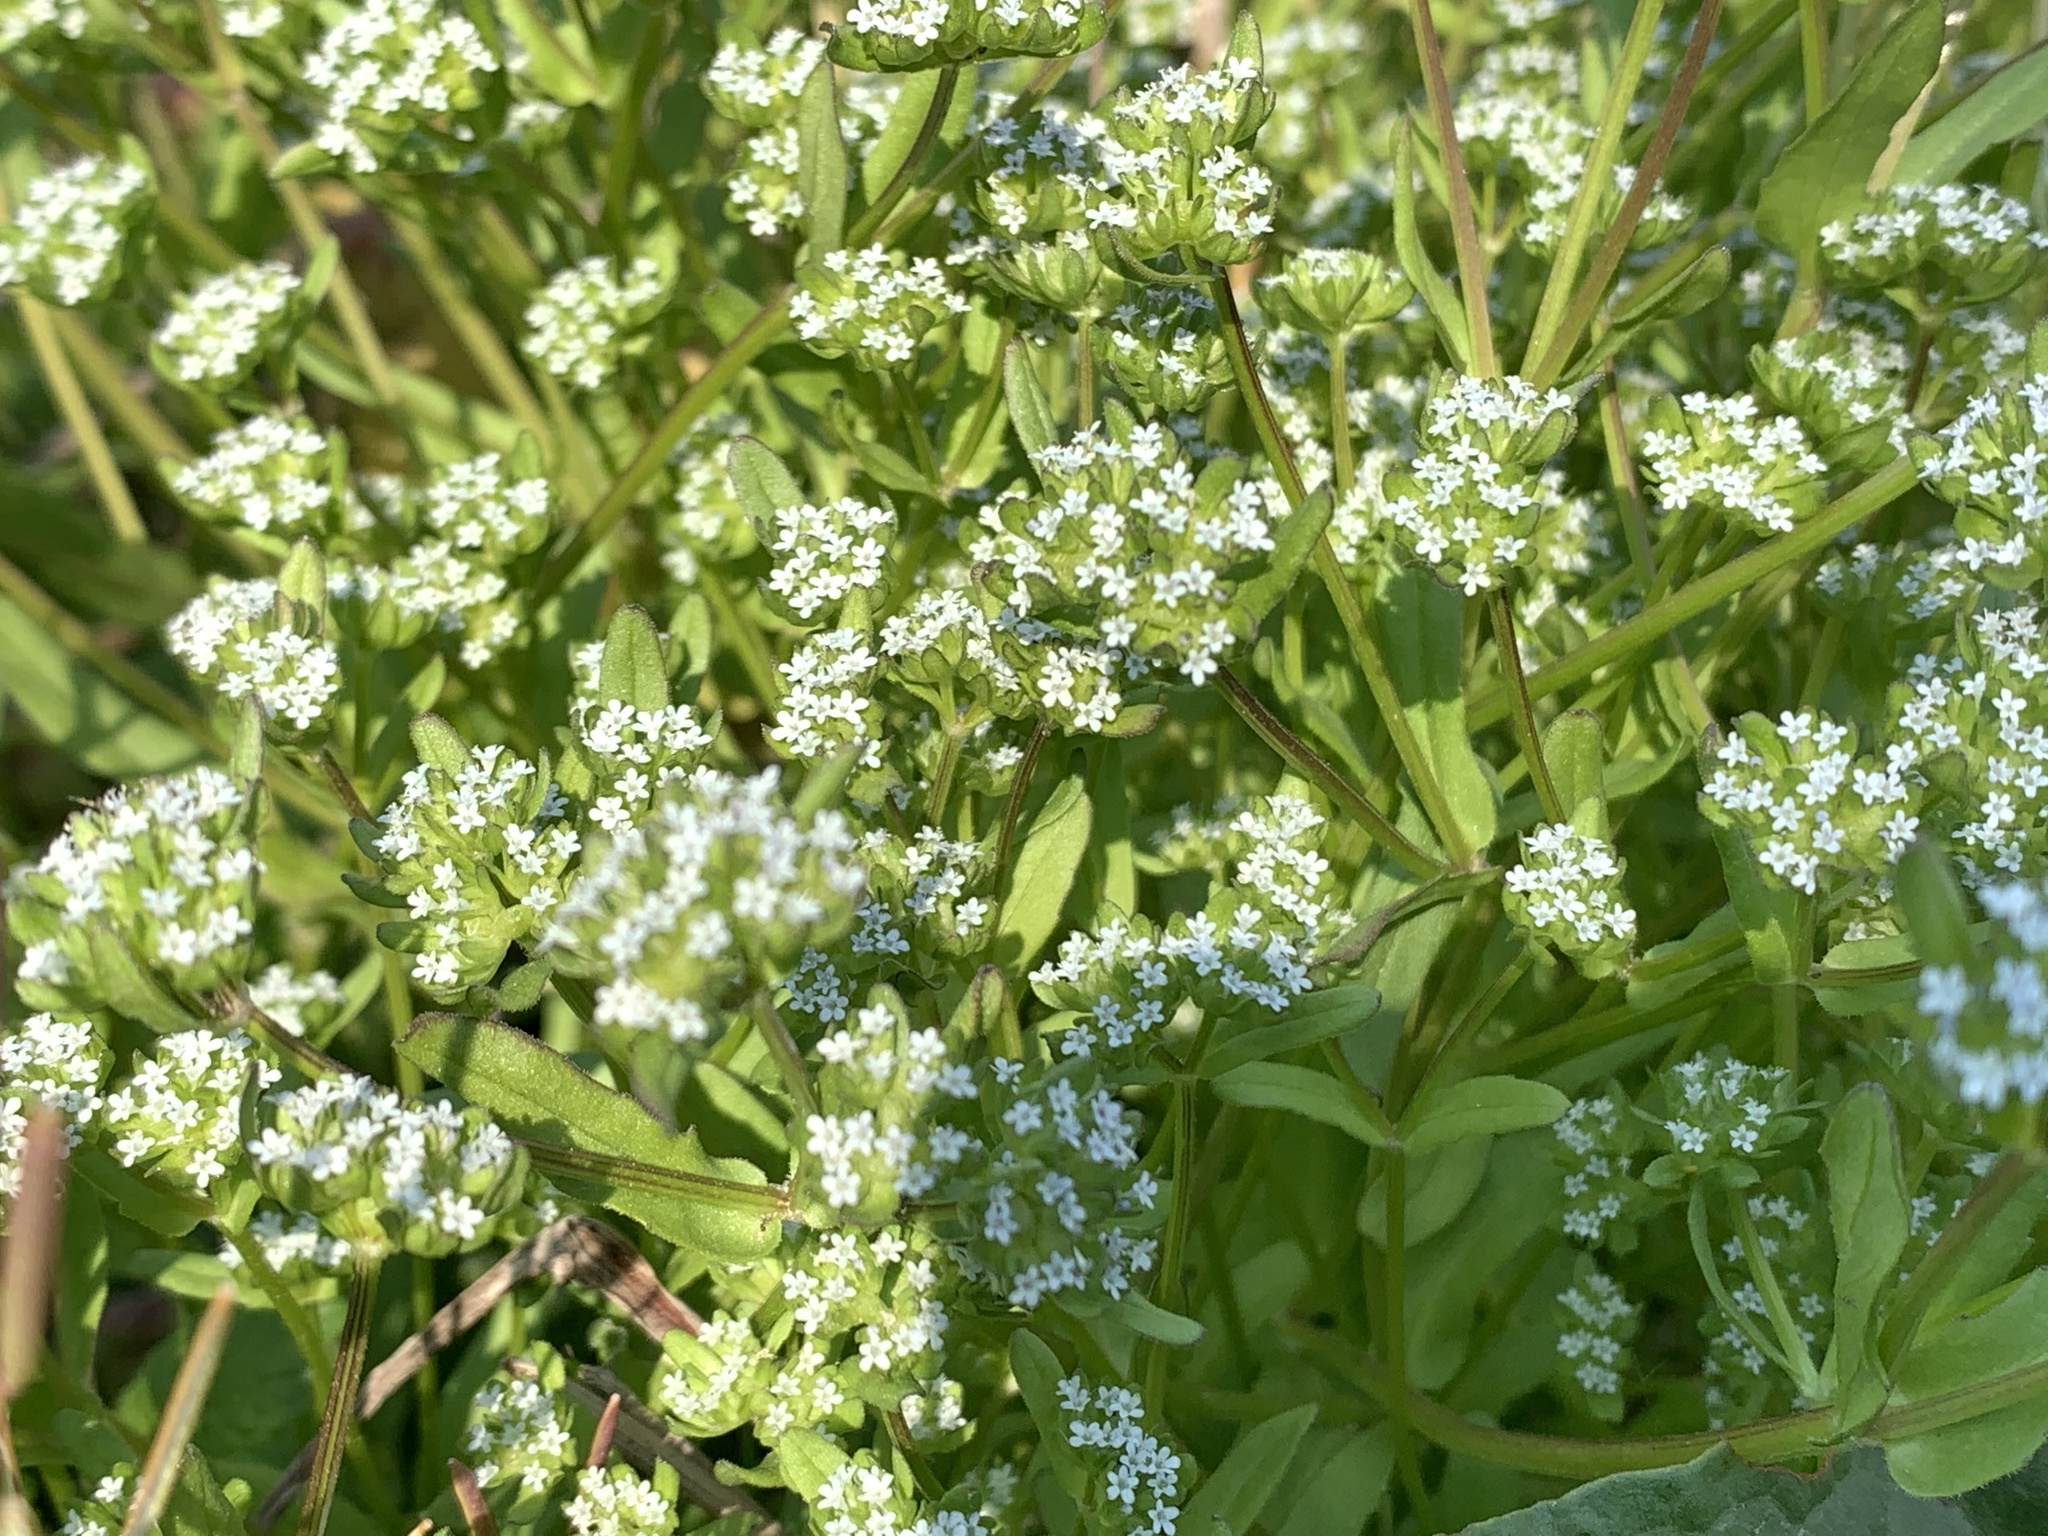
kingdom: Plantae
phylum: Tracheophyta
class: Magnoliopsida
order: Dipsacales
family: Caprifoliaceae
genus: Valerianella
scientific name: Valerianella locusta
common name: Common cornsalad
